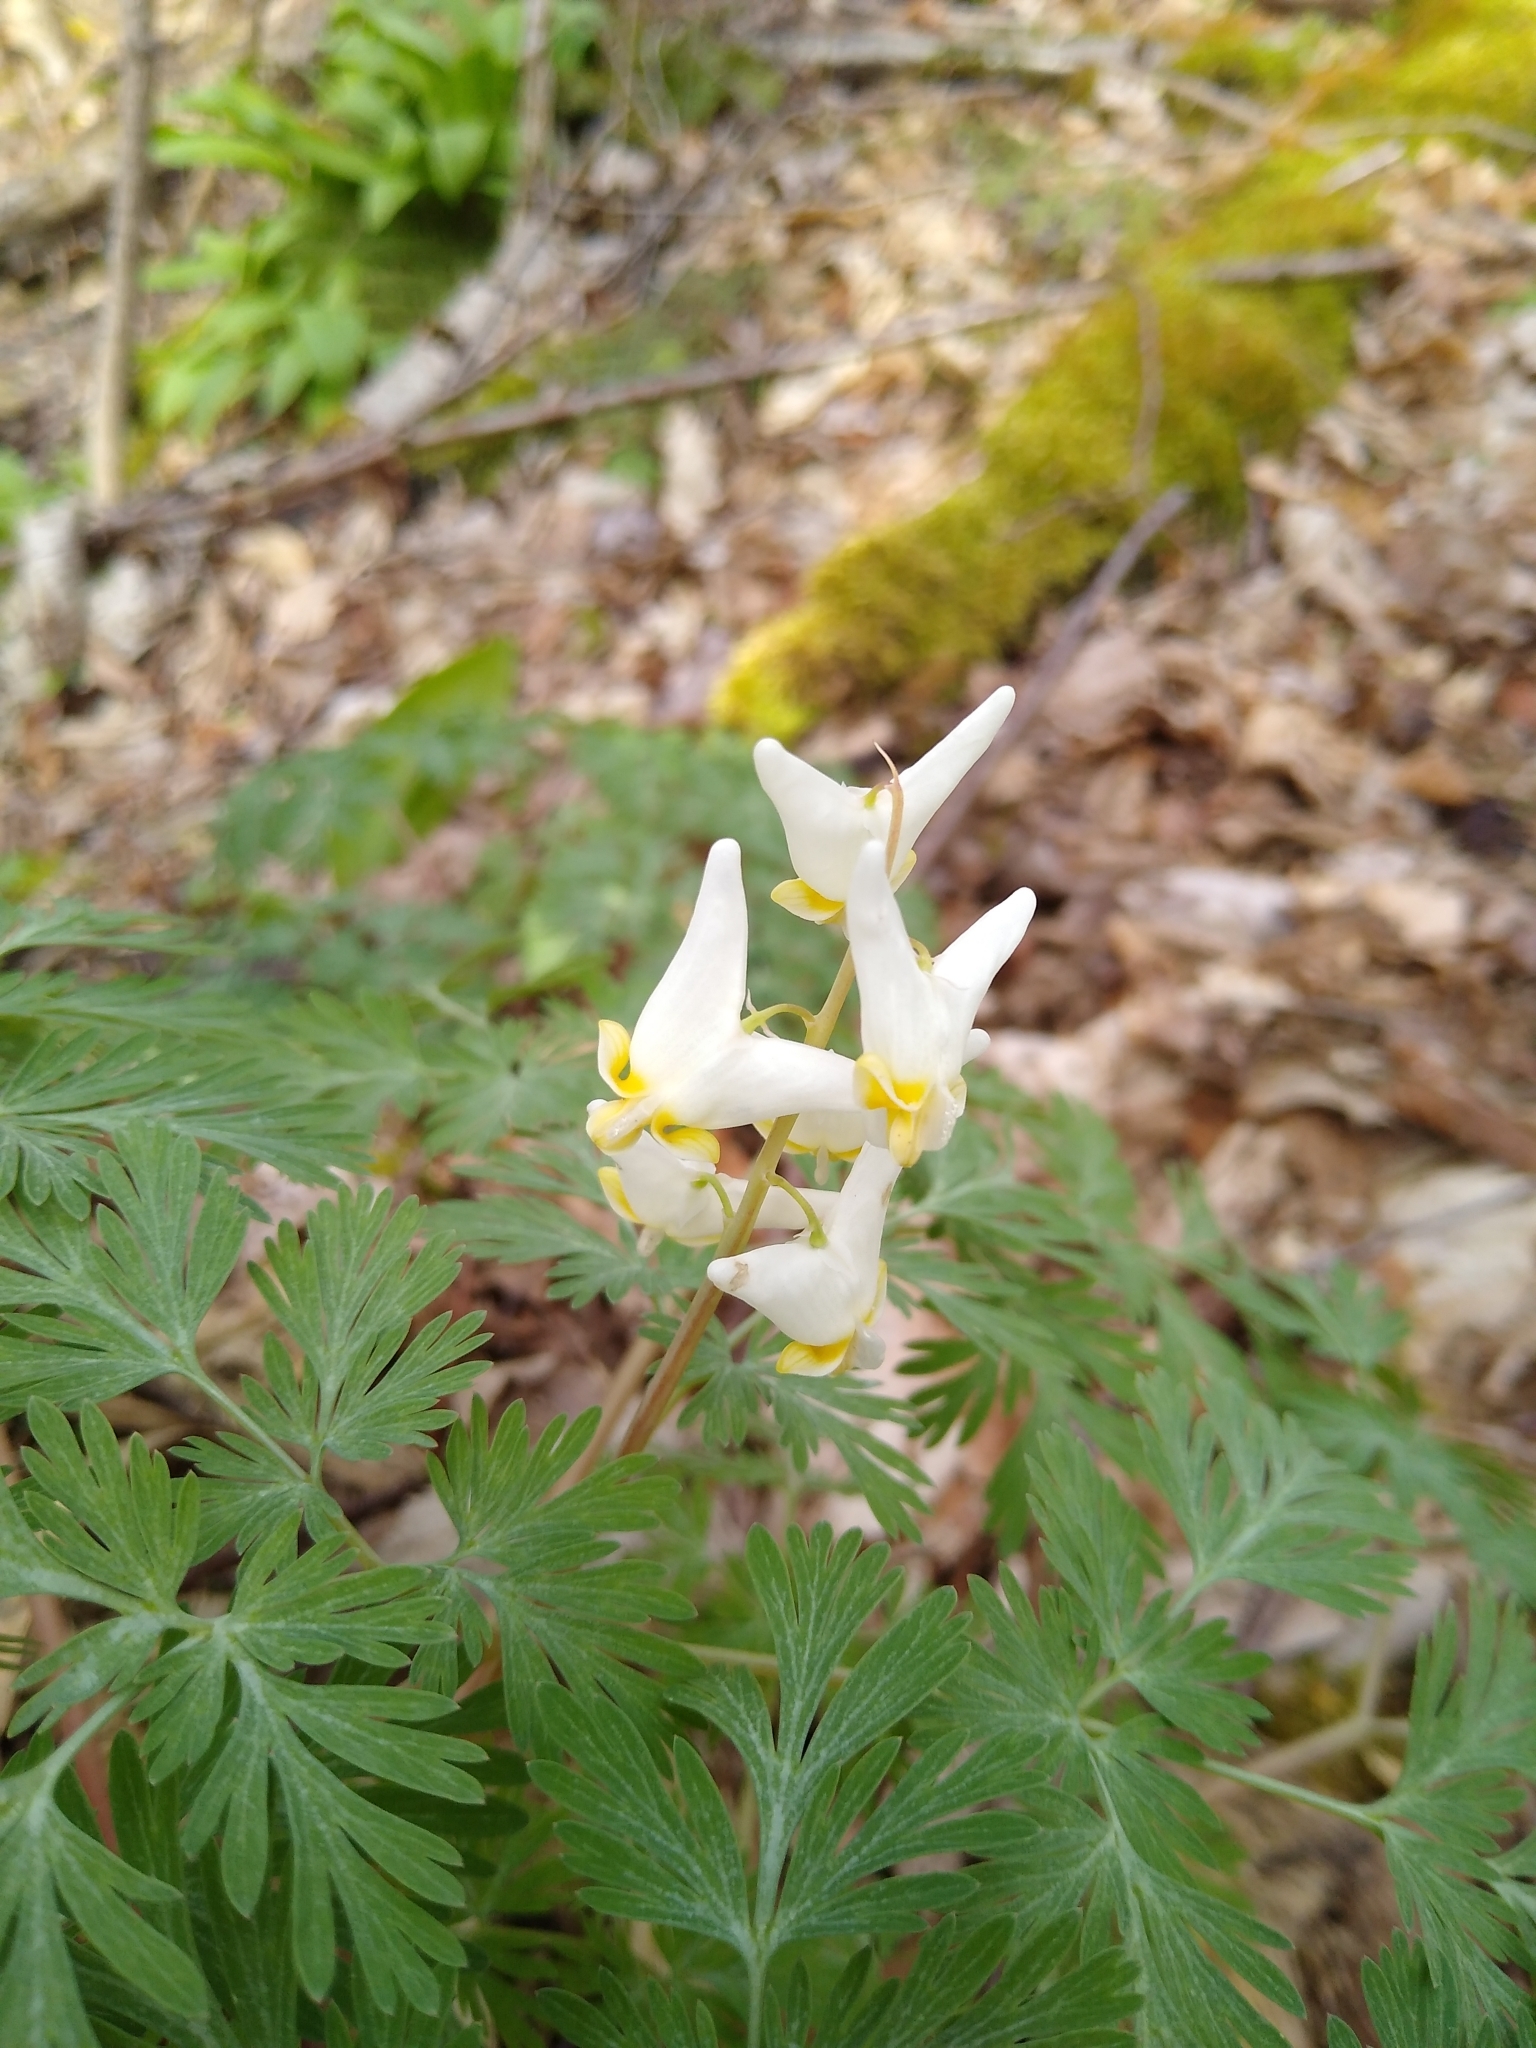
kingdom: Plantae
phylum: Tracheophyta
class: Magnoliopsida
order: Ranunculales
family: Papaveraceae
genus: Dicentra
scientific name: Dicentra cucullaria
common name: Dutchman's breeches
